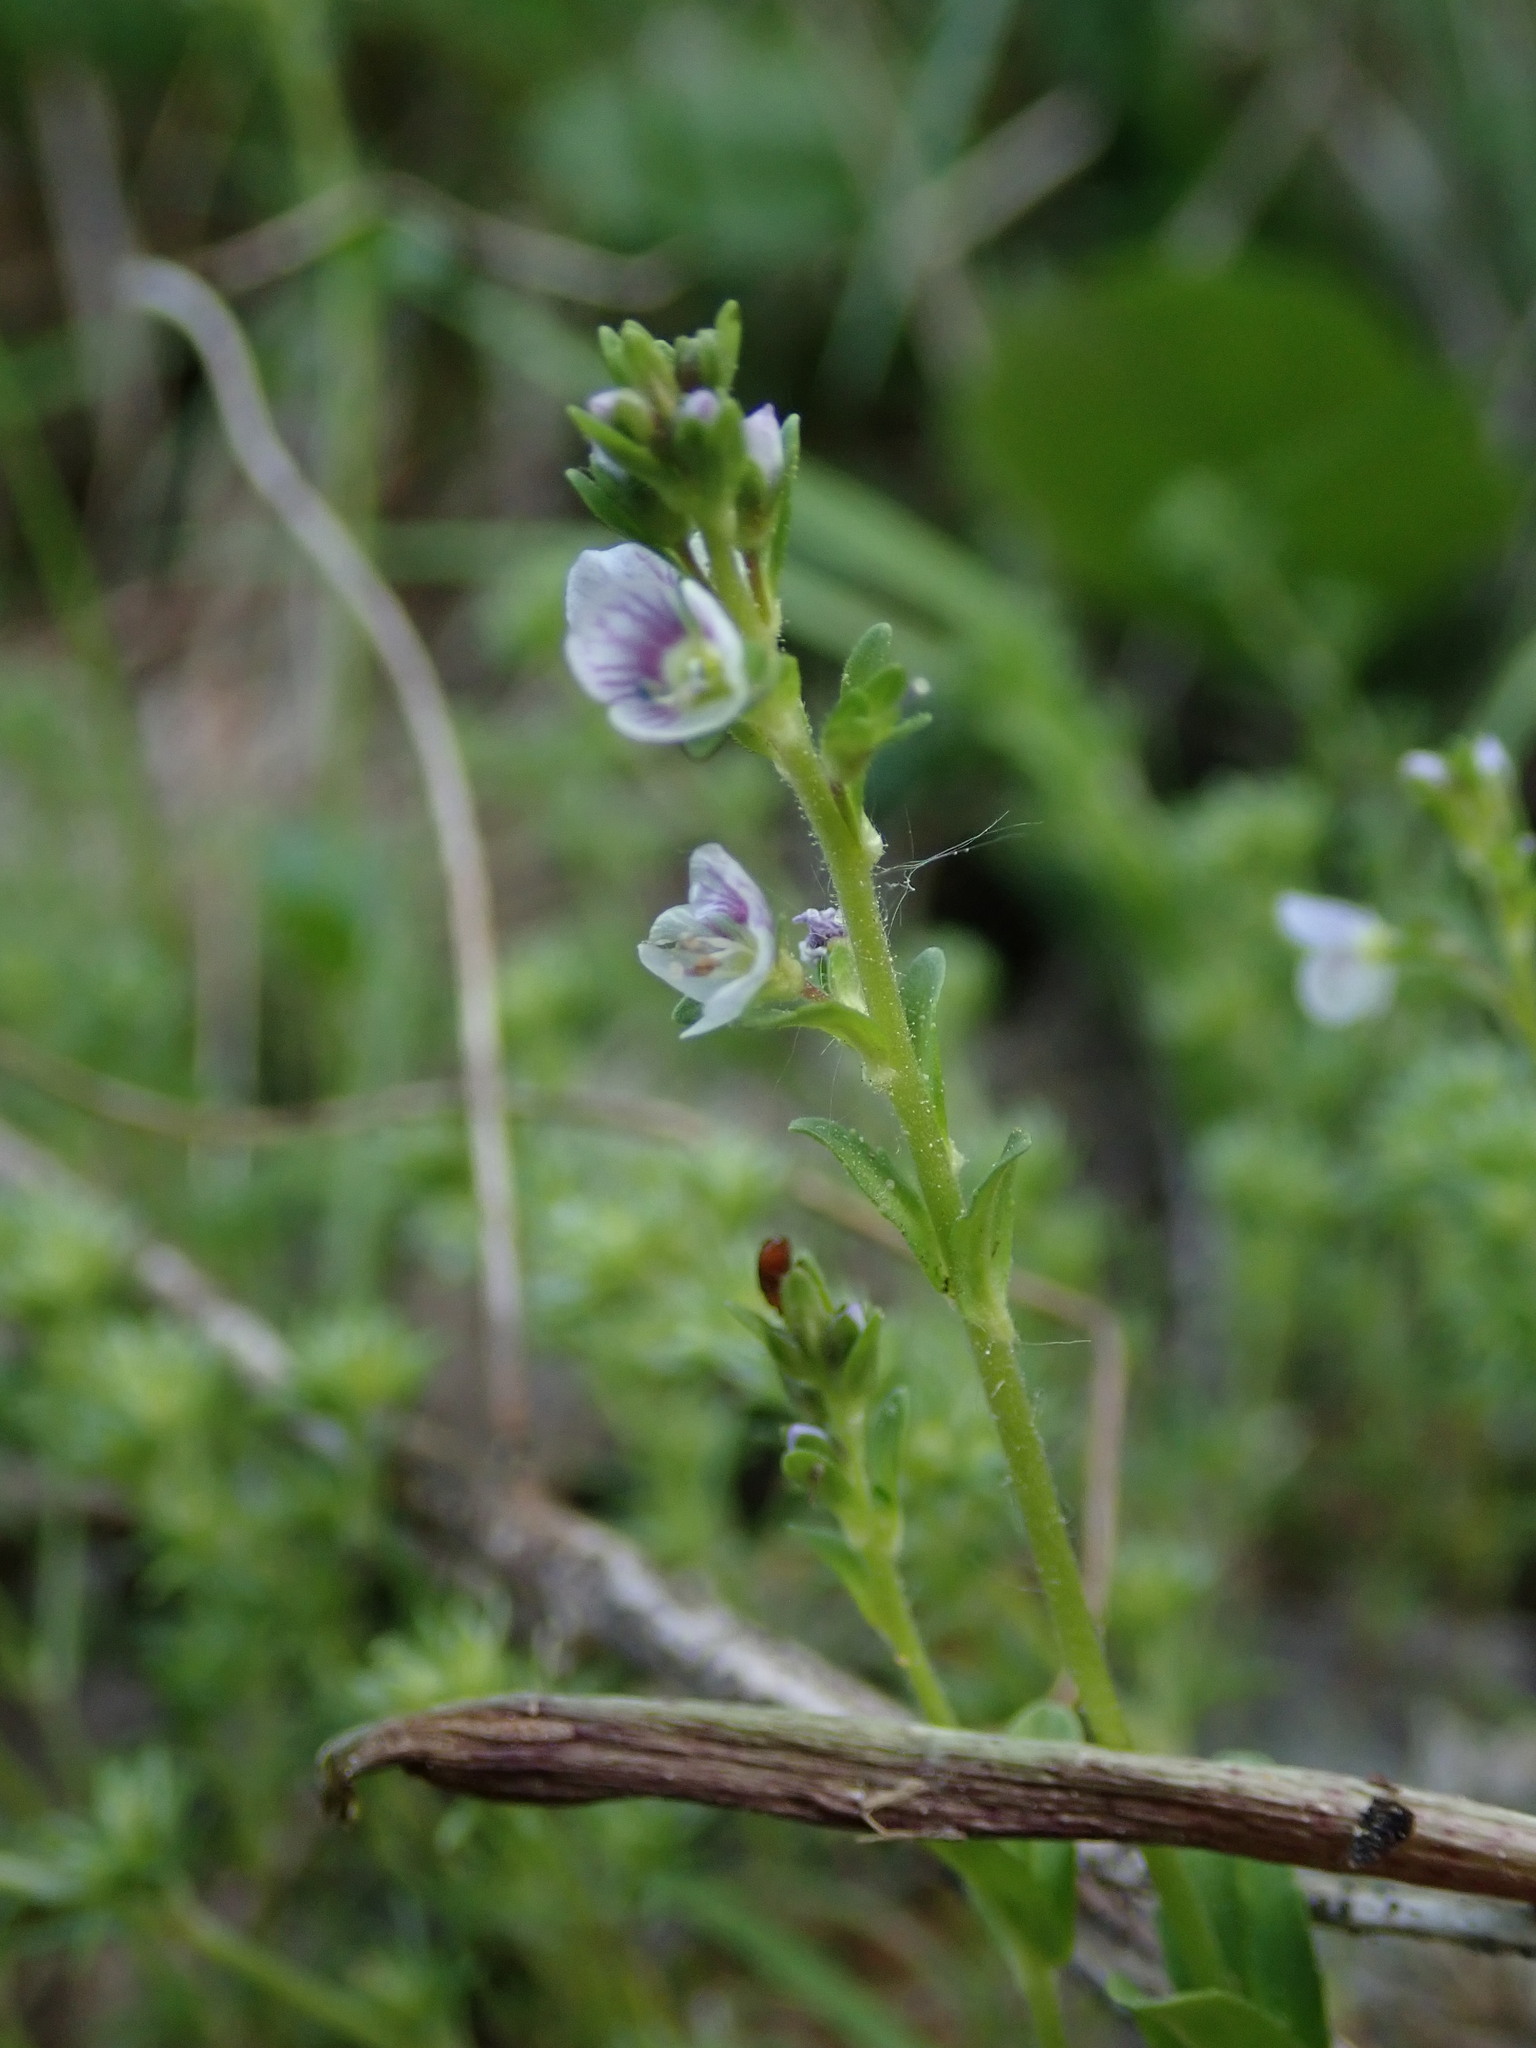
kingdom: Plantae
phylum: Tracheophyta
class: Magnoliopsida
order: Lamiales
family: Plantaginaceae
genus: Veronica
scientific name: Veronica serpyllifolia
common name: Thyme-leaved speedwell
